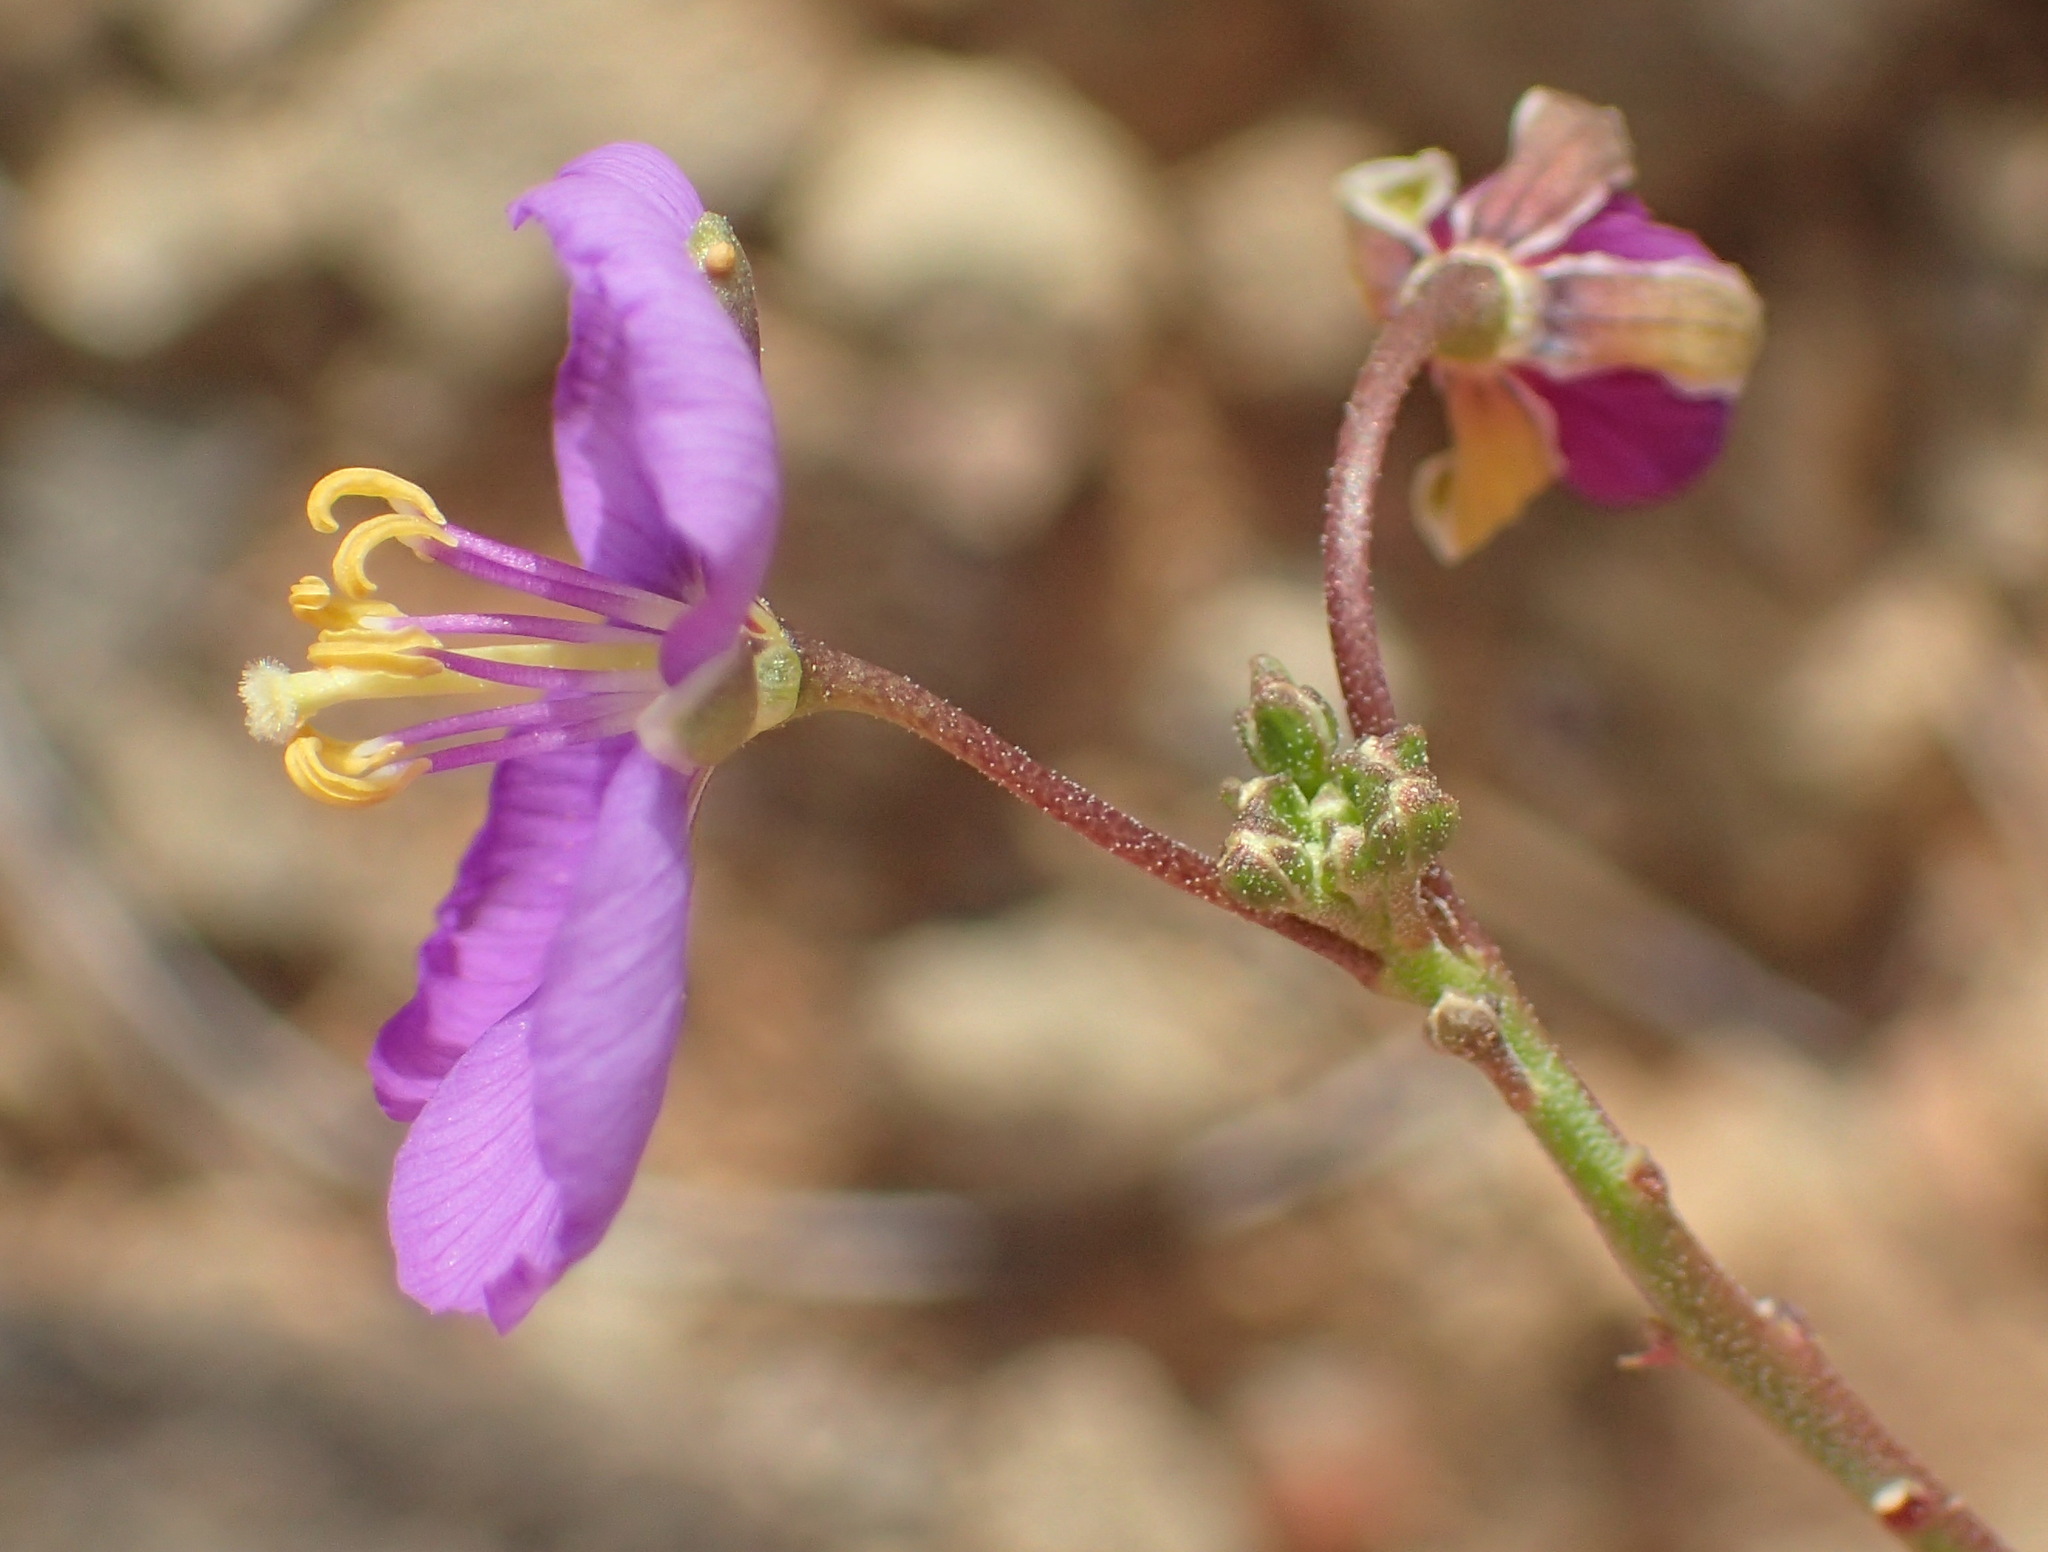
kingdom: Plantae
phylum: Tracheophyta
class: Magnoliopsida
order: Brassicales
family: Brassicaceae
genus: Heliophila
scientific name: Heliophila suavissima
